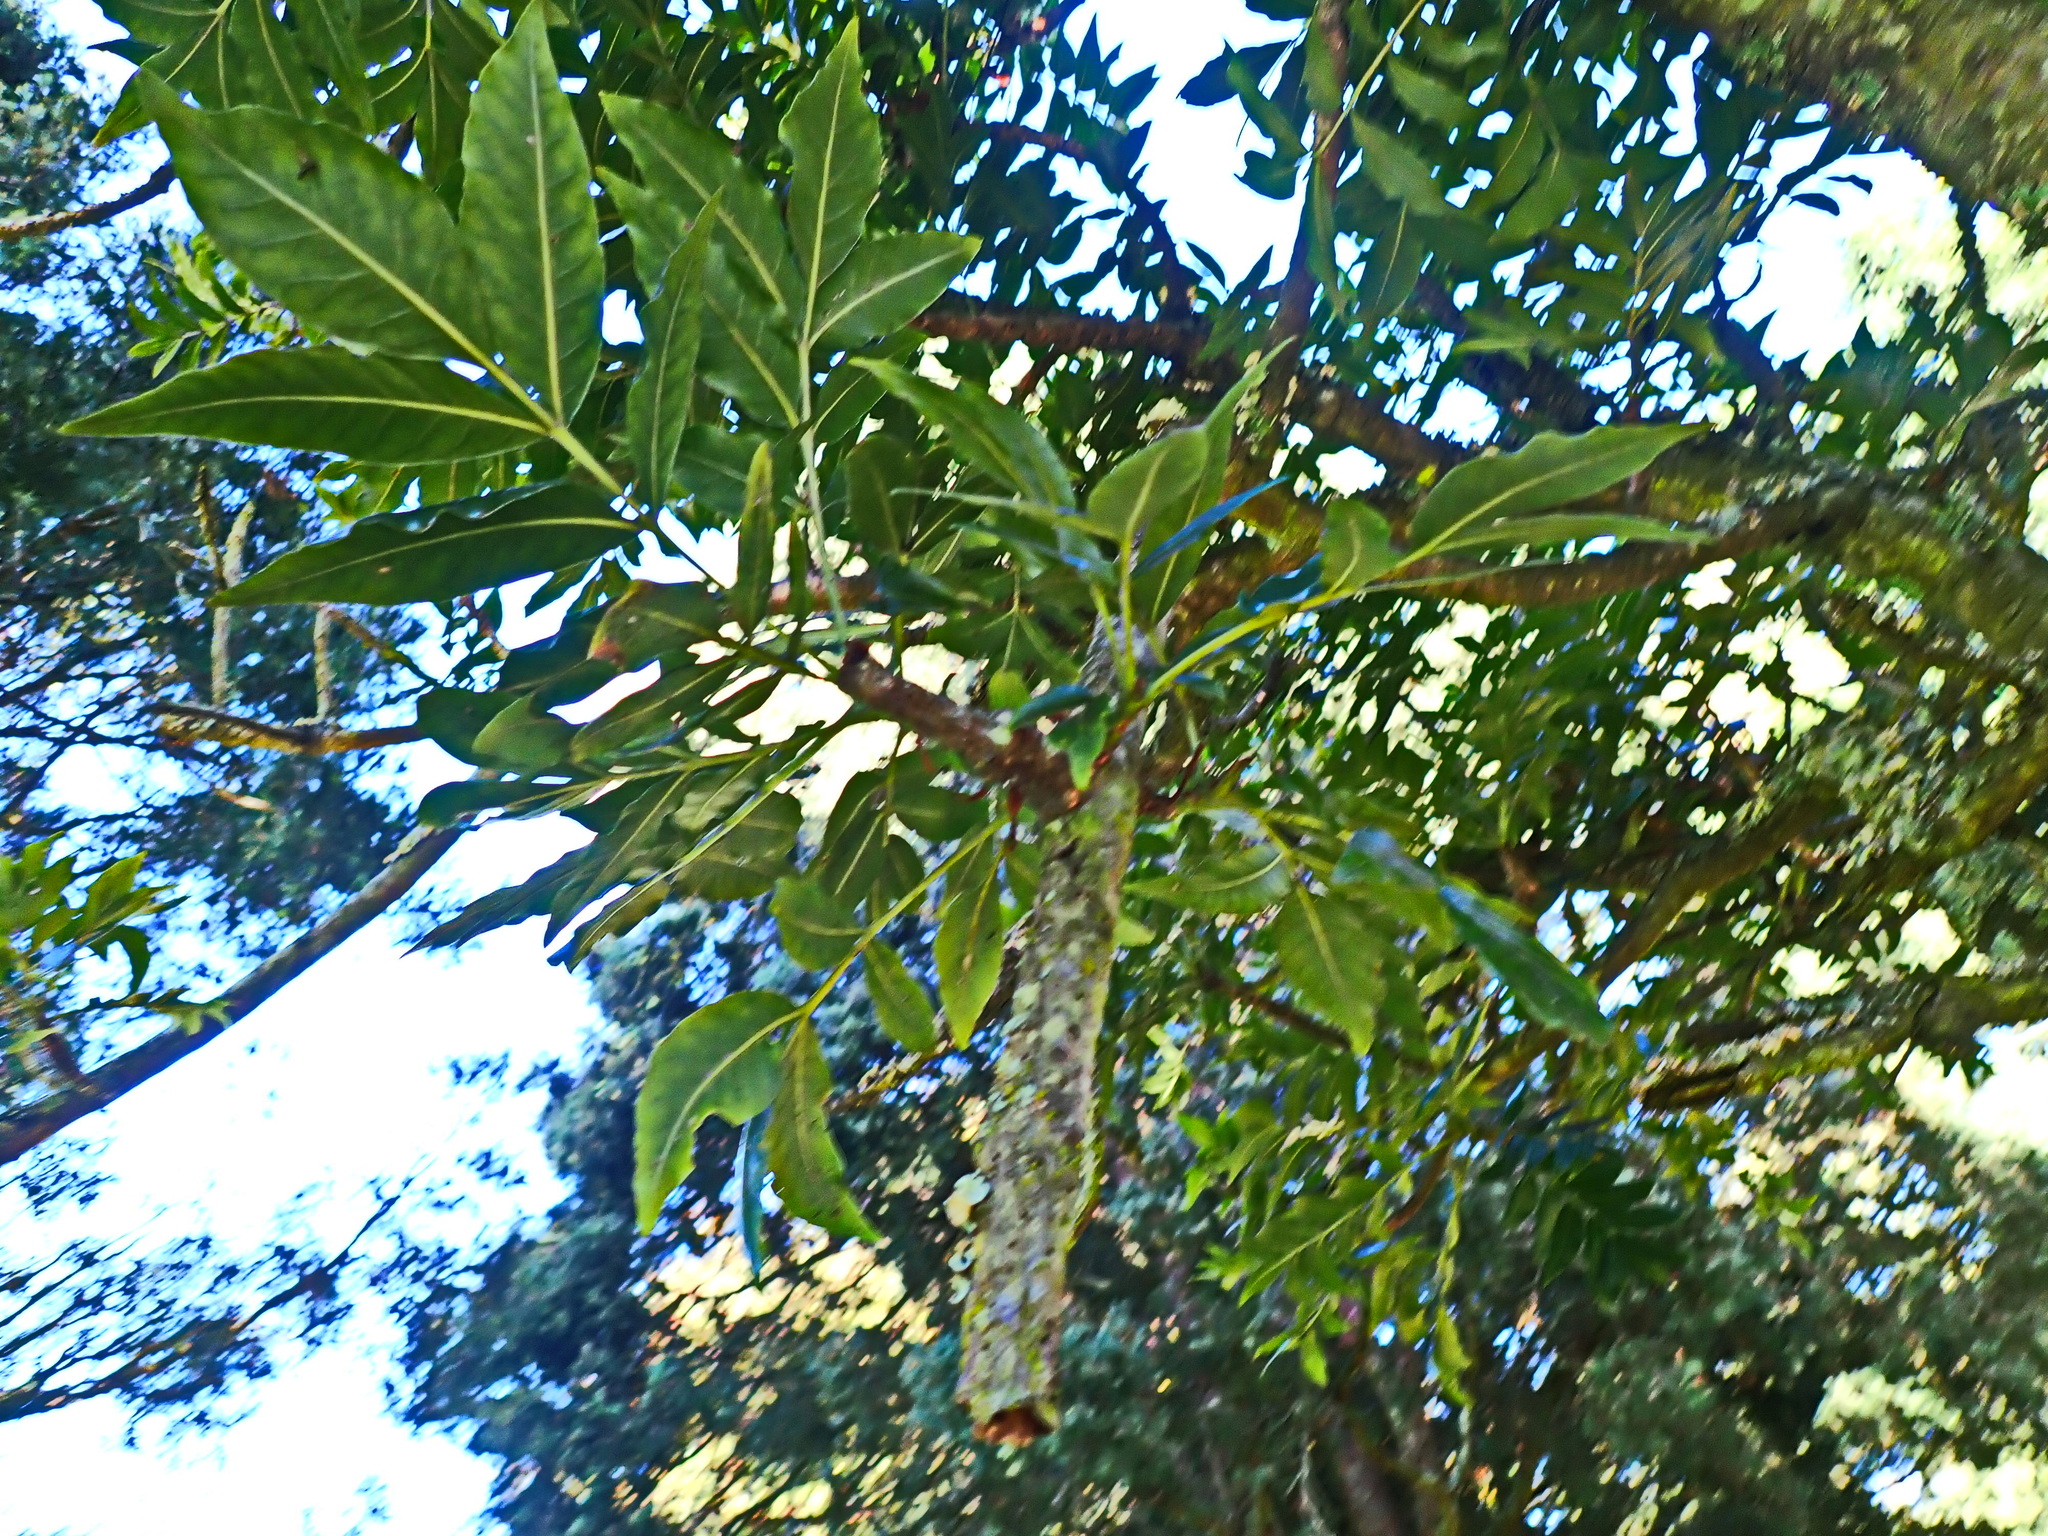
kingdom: Plantae
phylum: Tracheophyta
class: Magnoliopsida
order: Sapindales
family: Anacardiaceae
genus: Harpephyllum
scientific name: Harpephyllum caffrum
